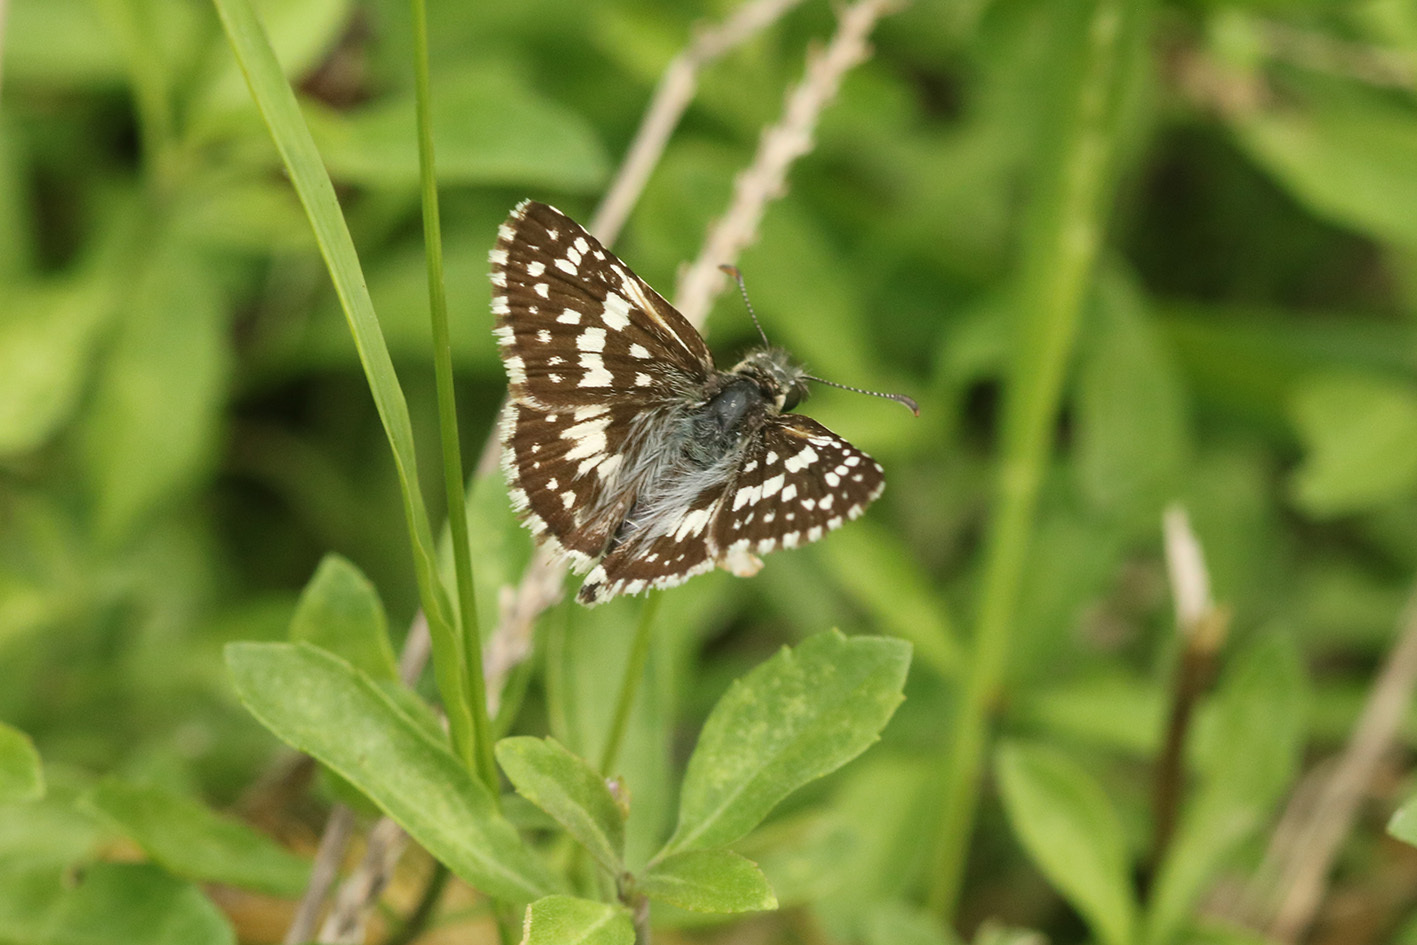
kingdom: Animalia
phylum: Arthropoda
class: Insecta
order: Lepidoptera
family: Hesperiidae
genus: Burnsius
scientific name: Burnsius orcynoides
